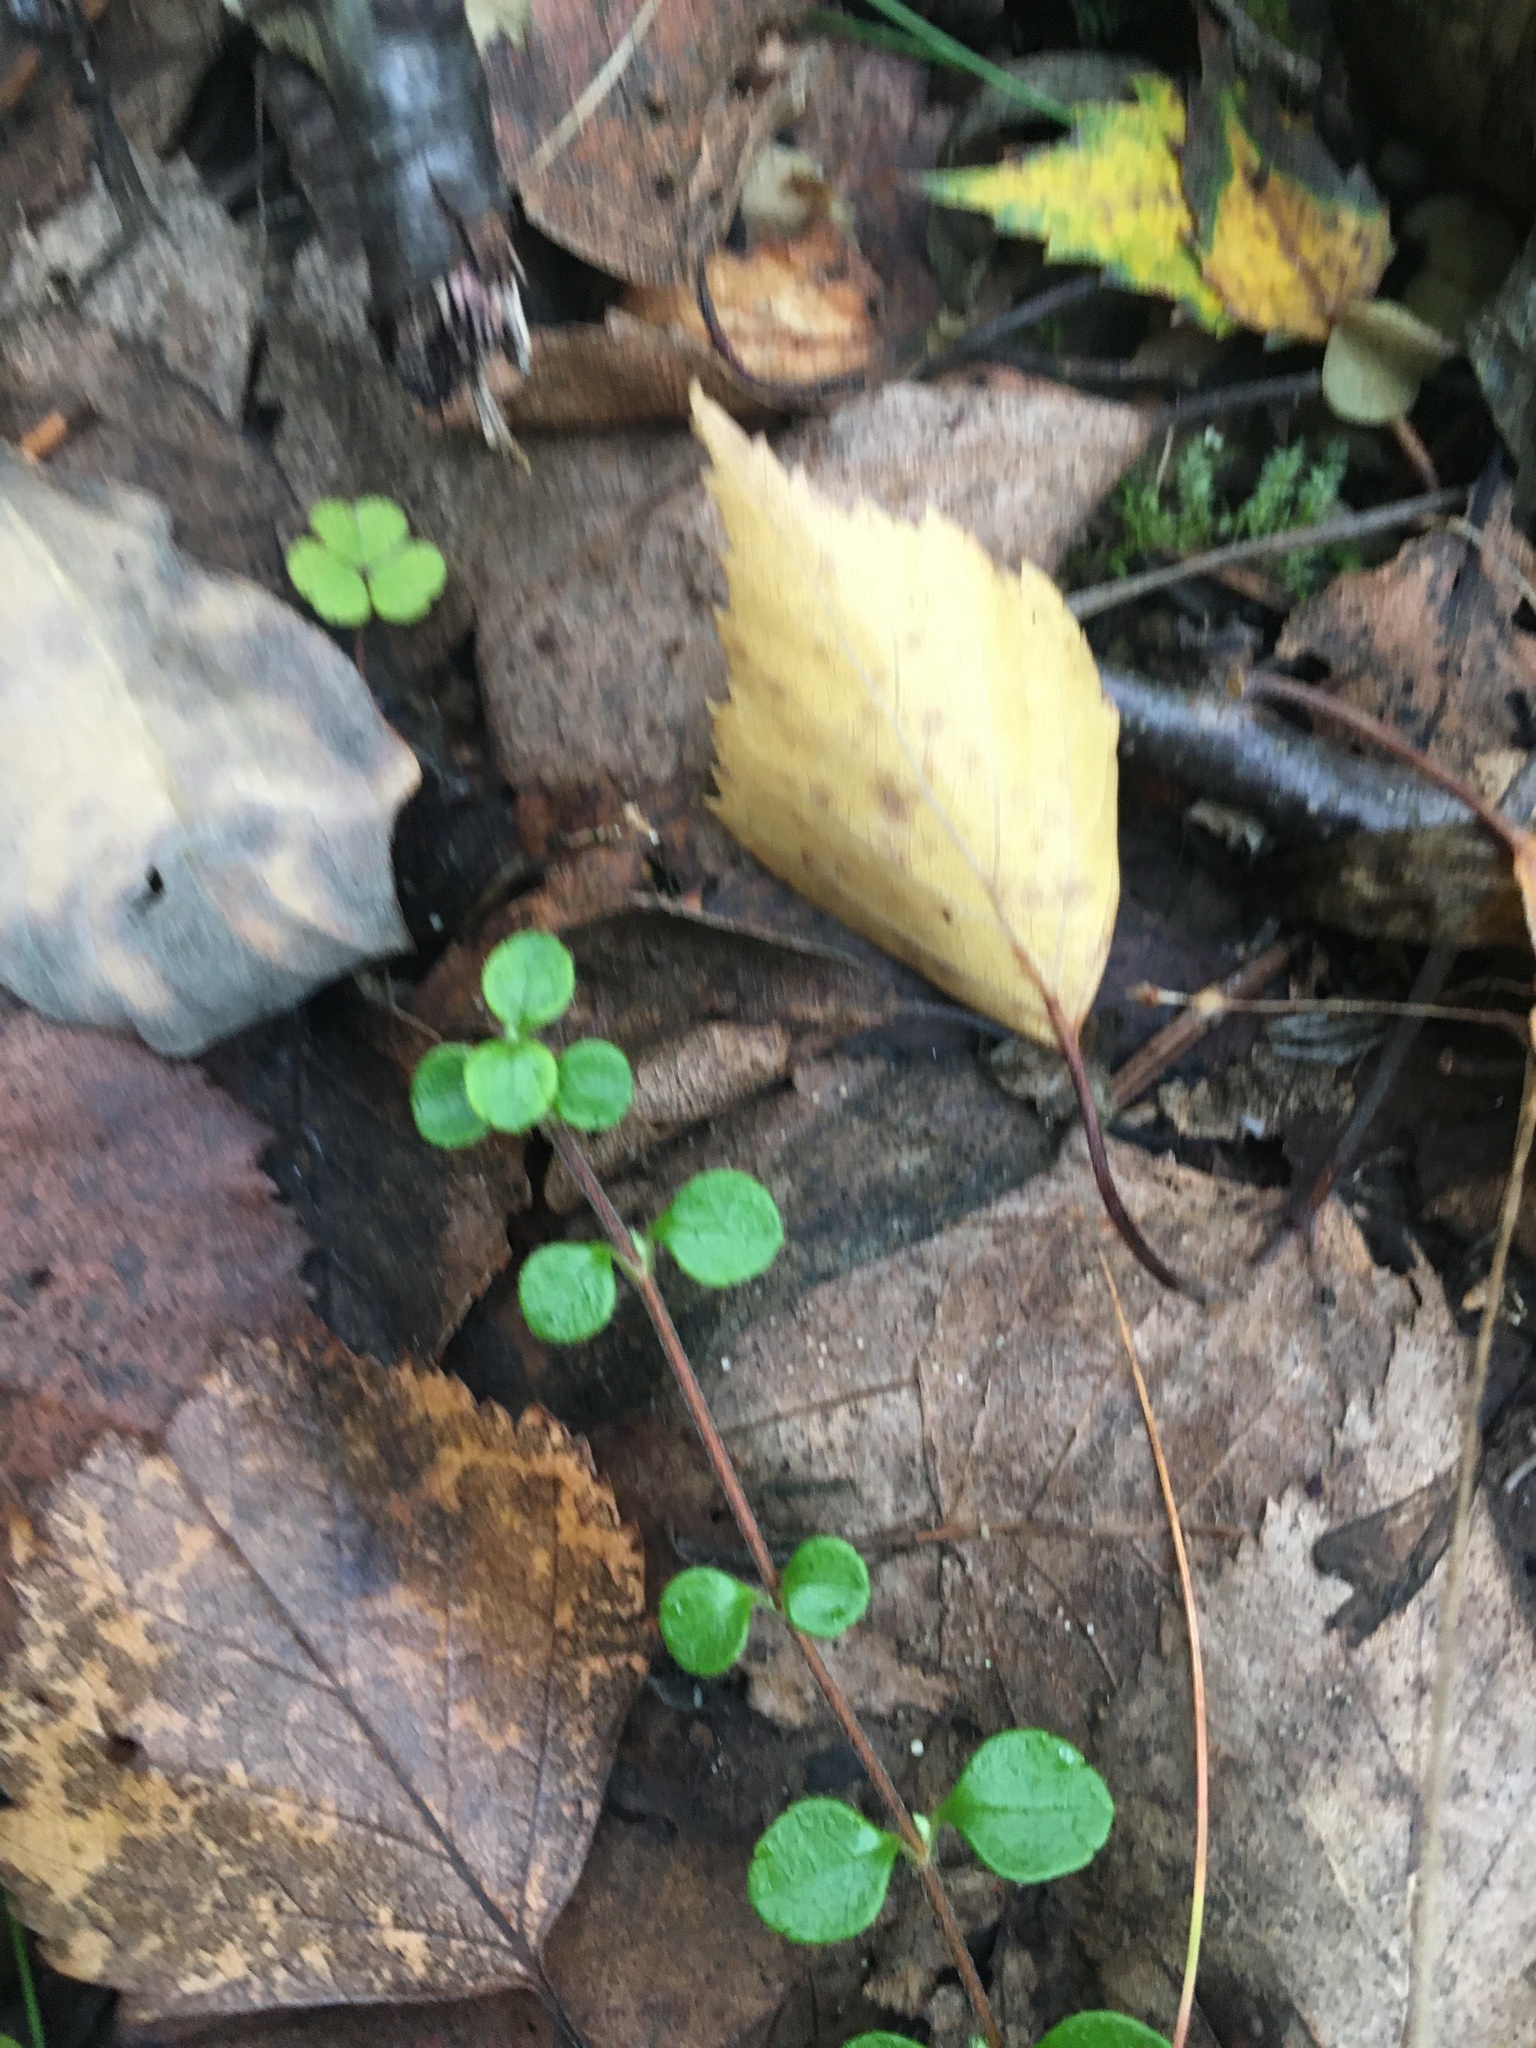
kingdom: Plantae
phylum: Tracheophyta
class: Magnoliopsida
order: Dipsacales
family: Caprifoliaceae
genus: Linnaea
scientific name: Linnaea borealis
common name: Twinflower
